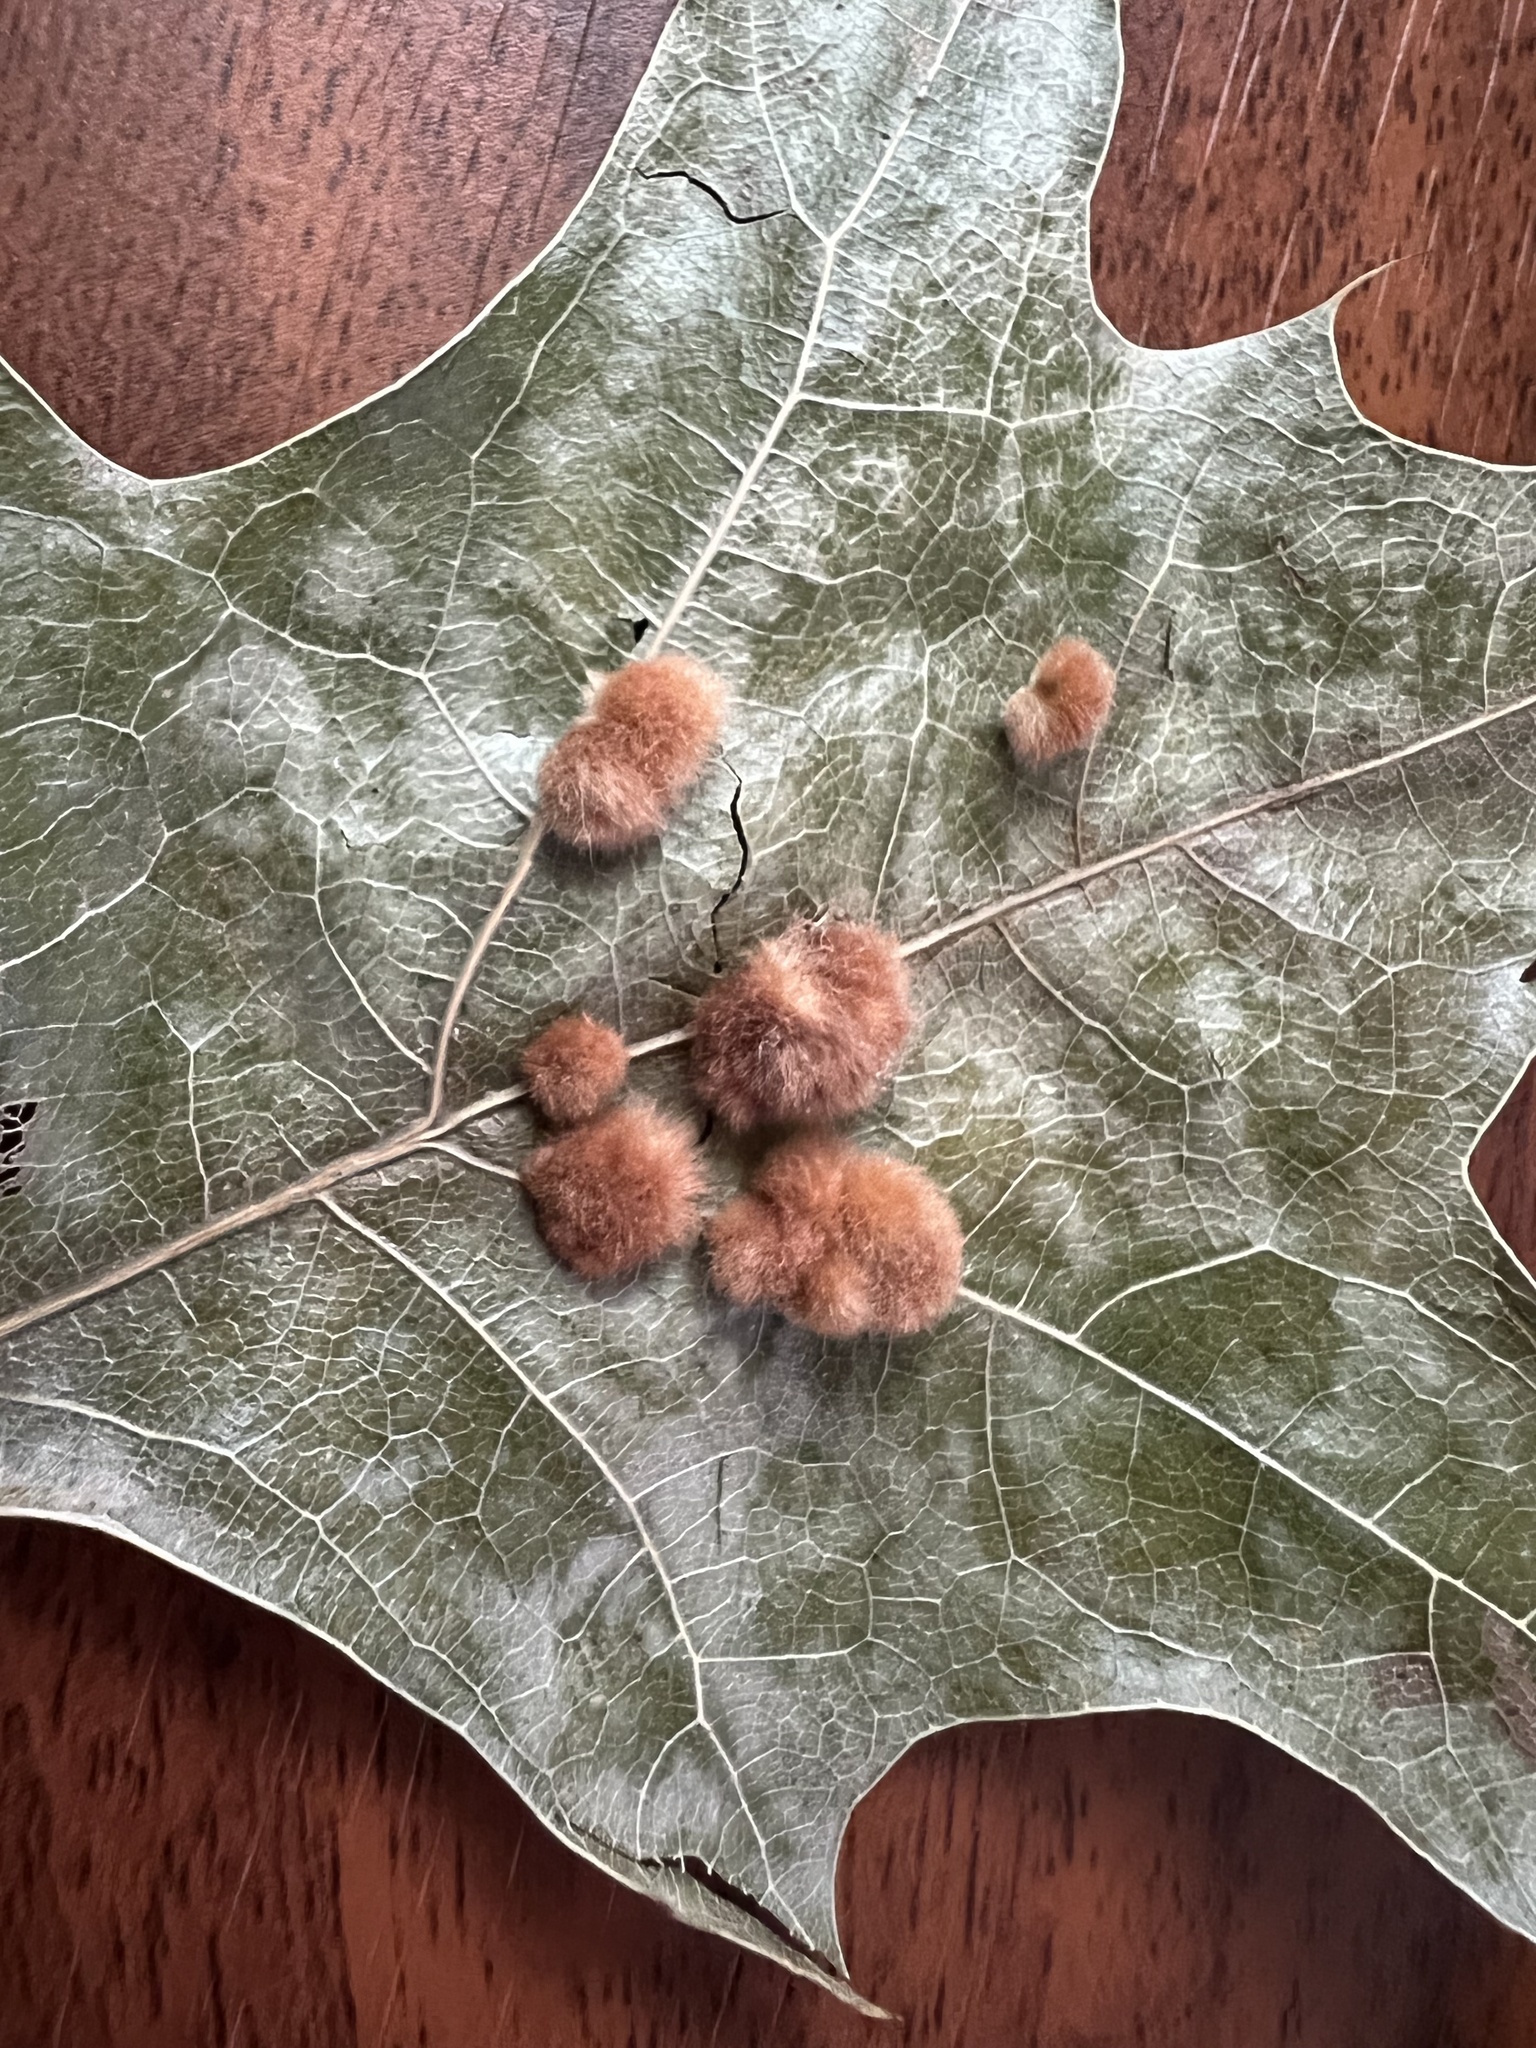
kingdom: Animalia
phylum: Arthropoda
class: Insecta
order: Hymenoptera
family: Cynipidae
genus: Callirhytis
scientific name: Callirhytis
